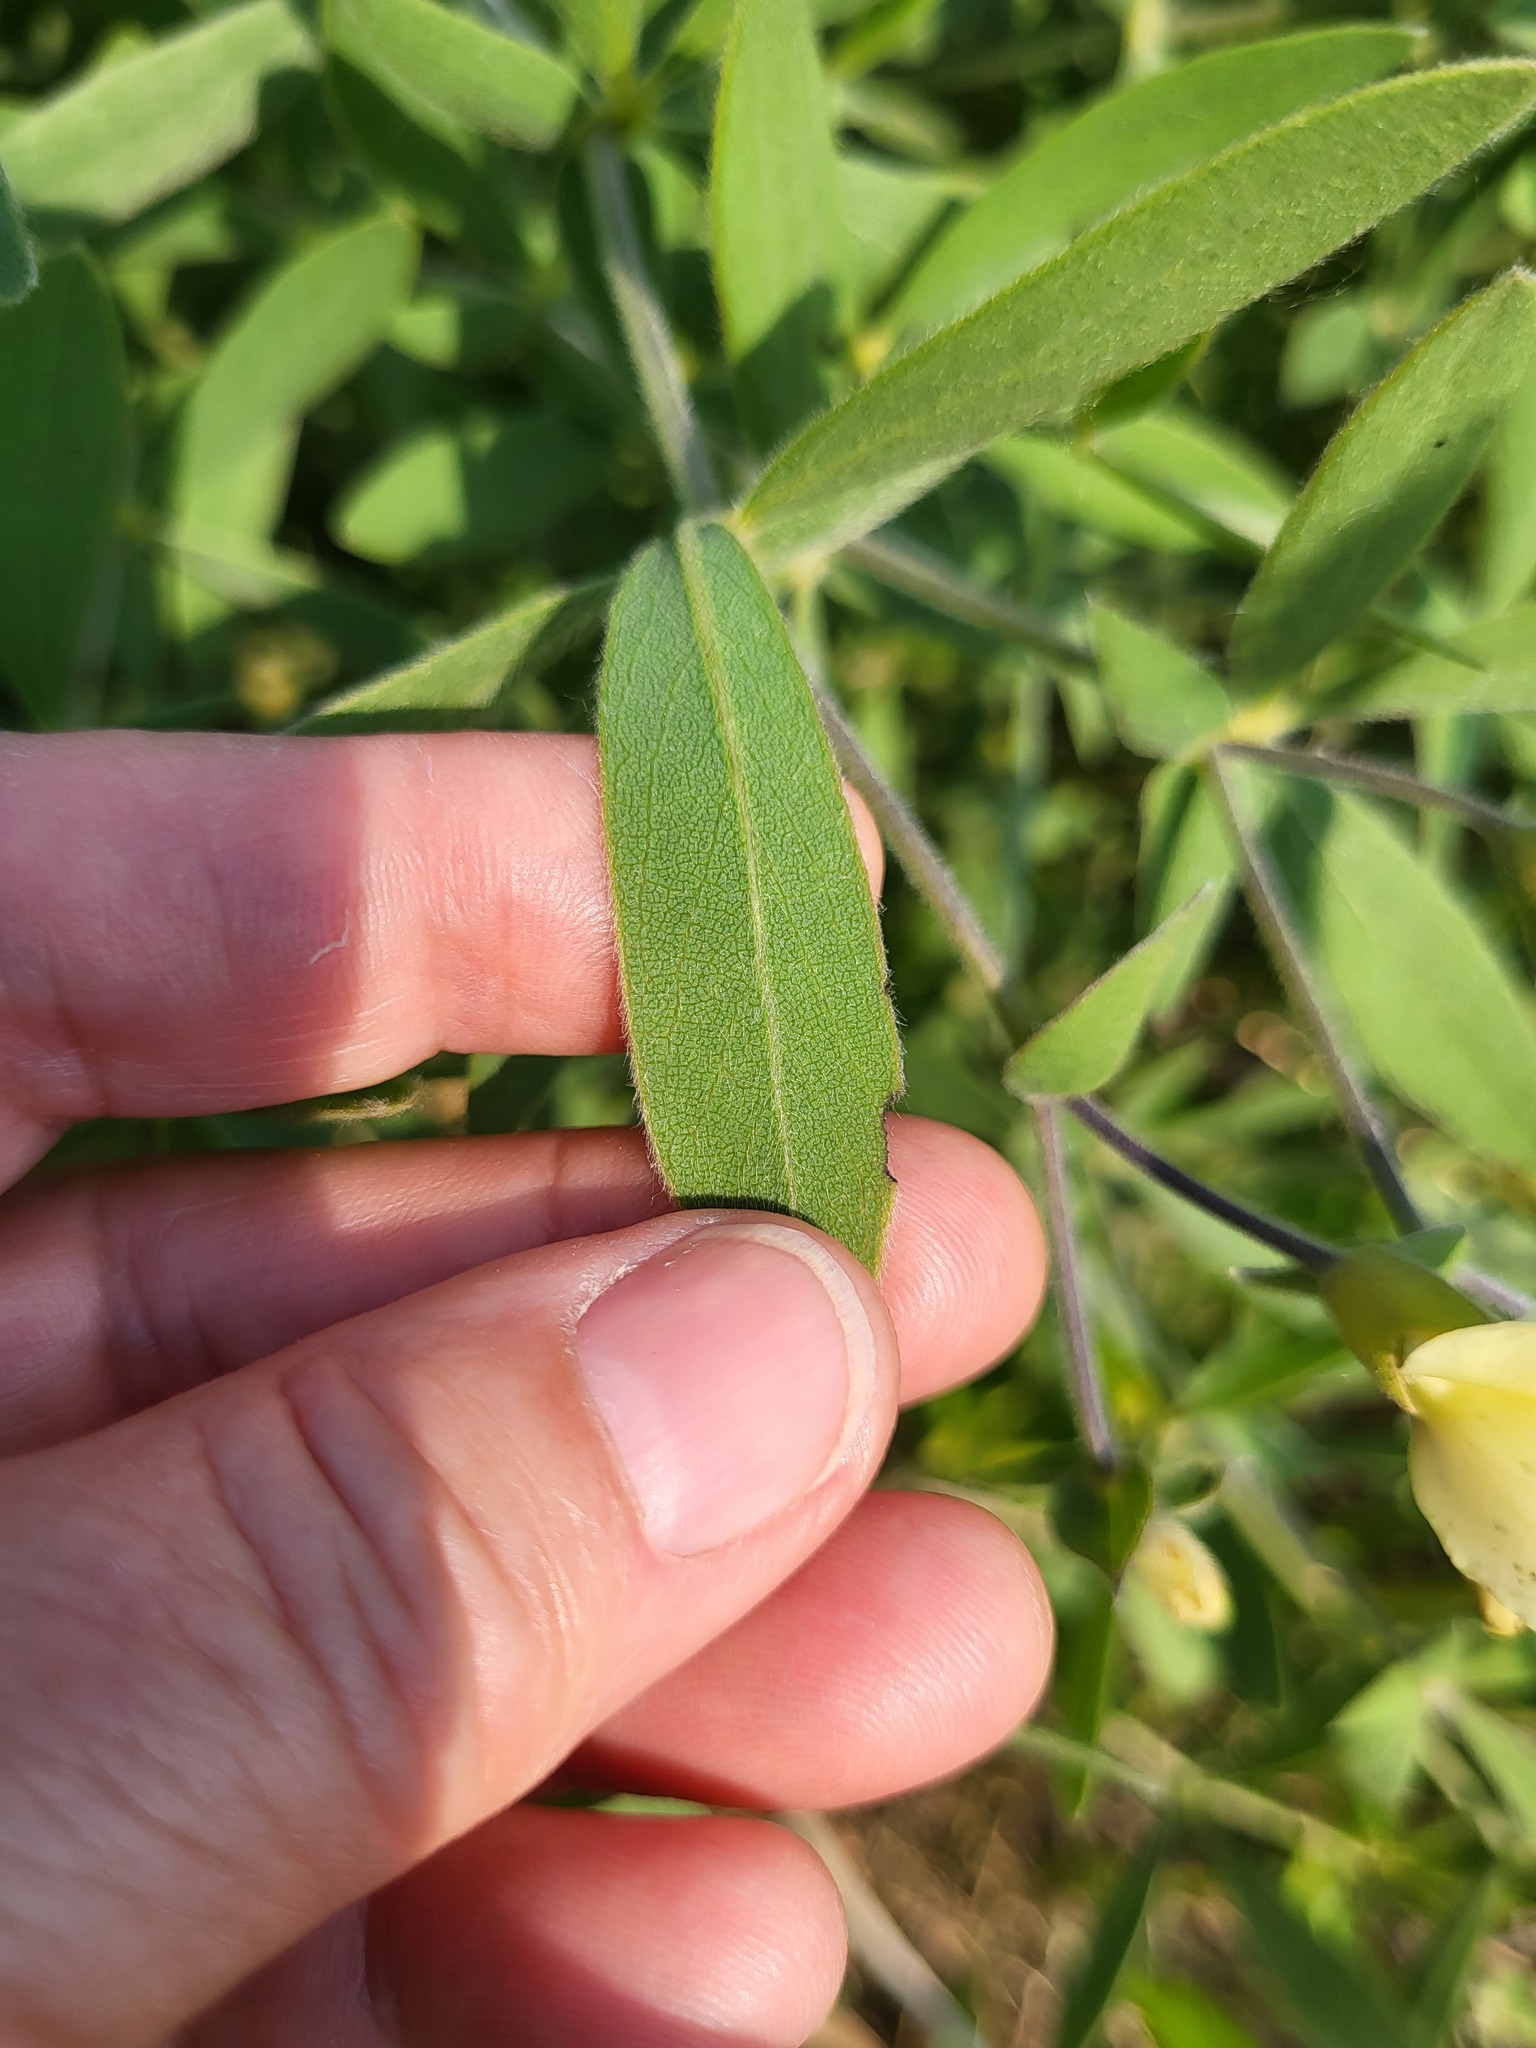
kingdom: Plantae
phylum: Tracheophyta
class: Magnoliopsida
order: Fabales
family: Fabaceae
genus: Baptisia
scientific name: Baptisia bracteata
